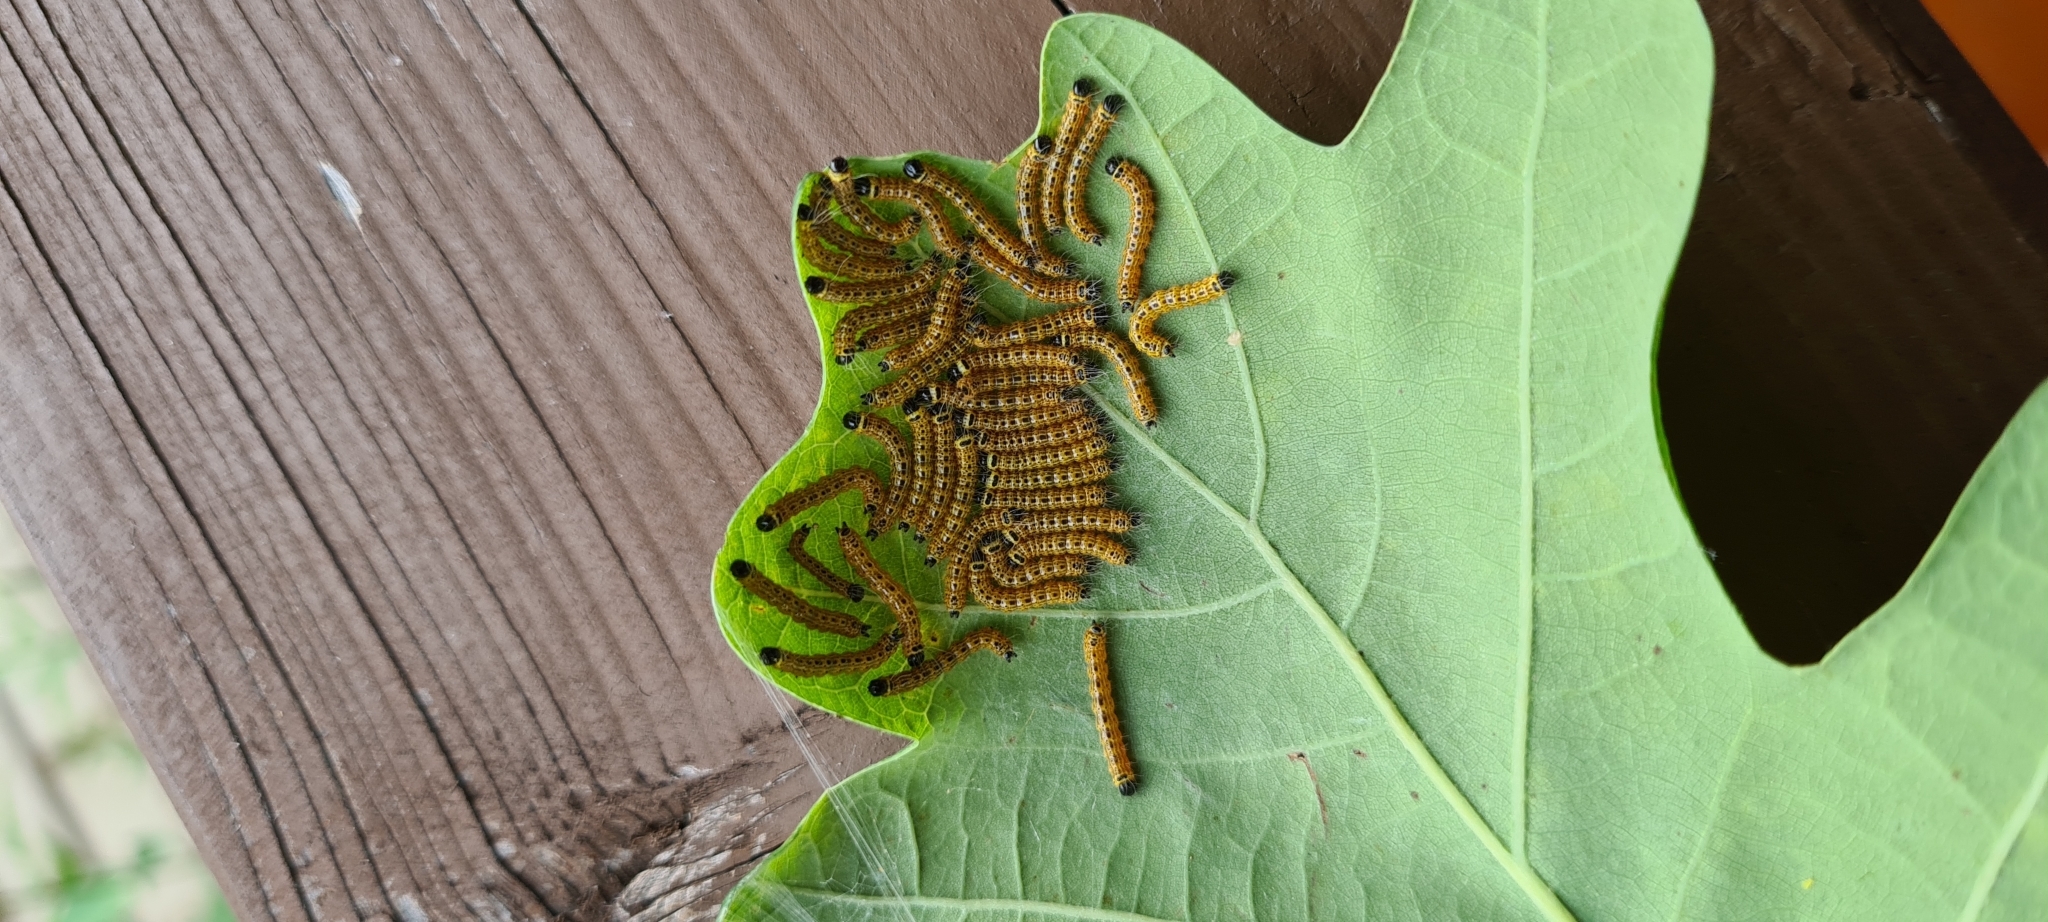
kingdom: Animalia
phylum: Arthropoda
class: Insecta
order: Lepidoptera
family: Notodontidae
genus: Phalera
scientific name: Phalera bucephala
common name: Buff-tip
